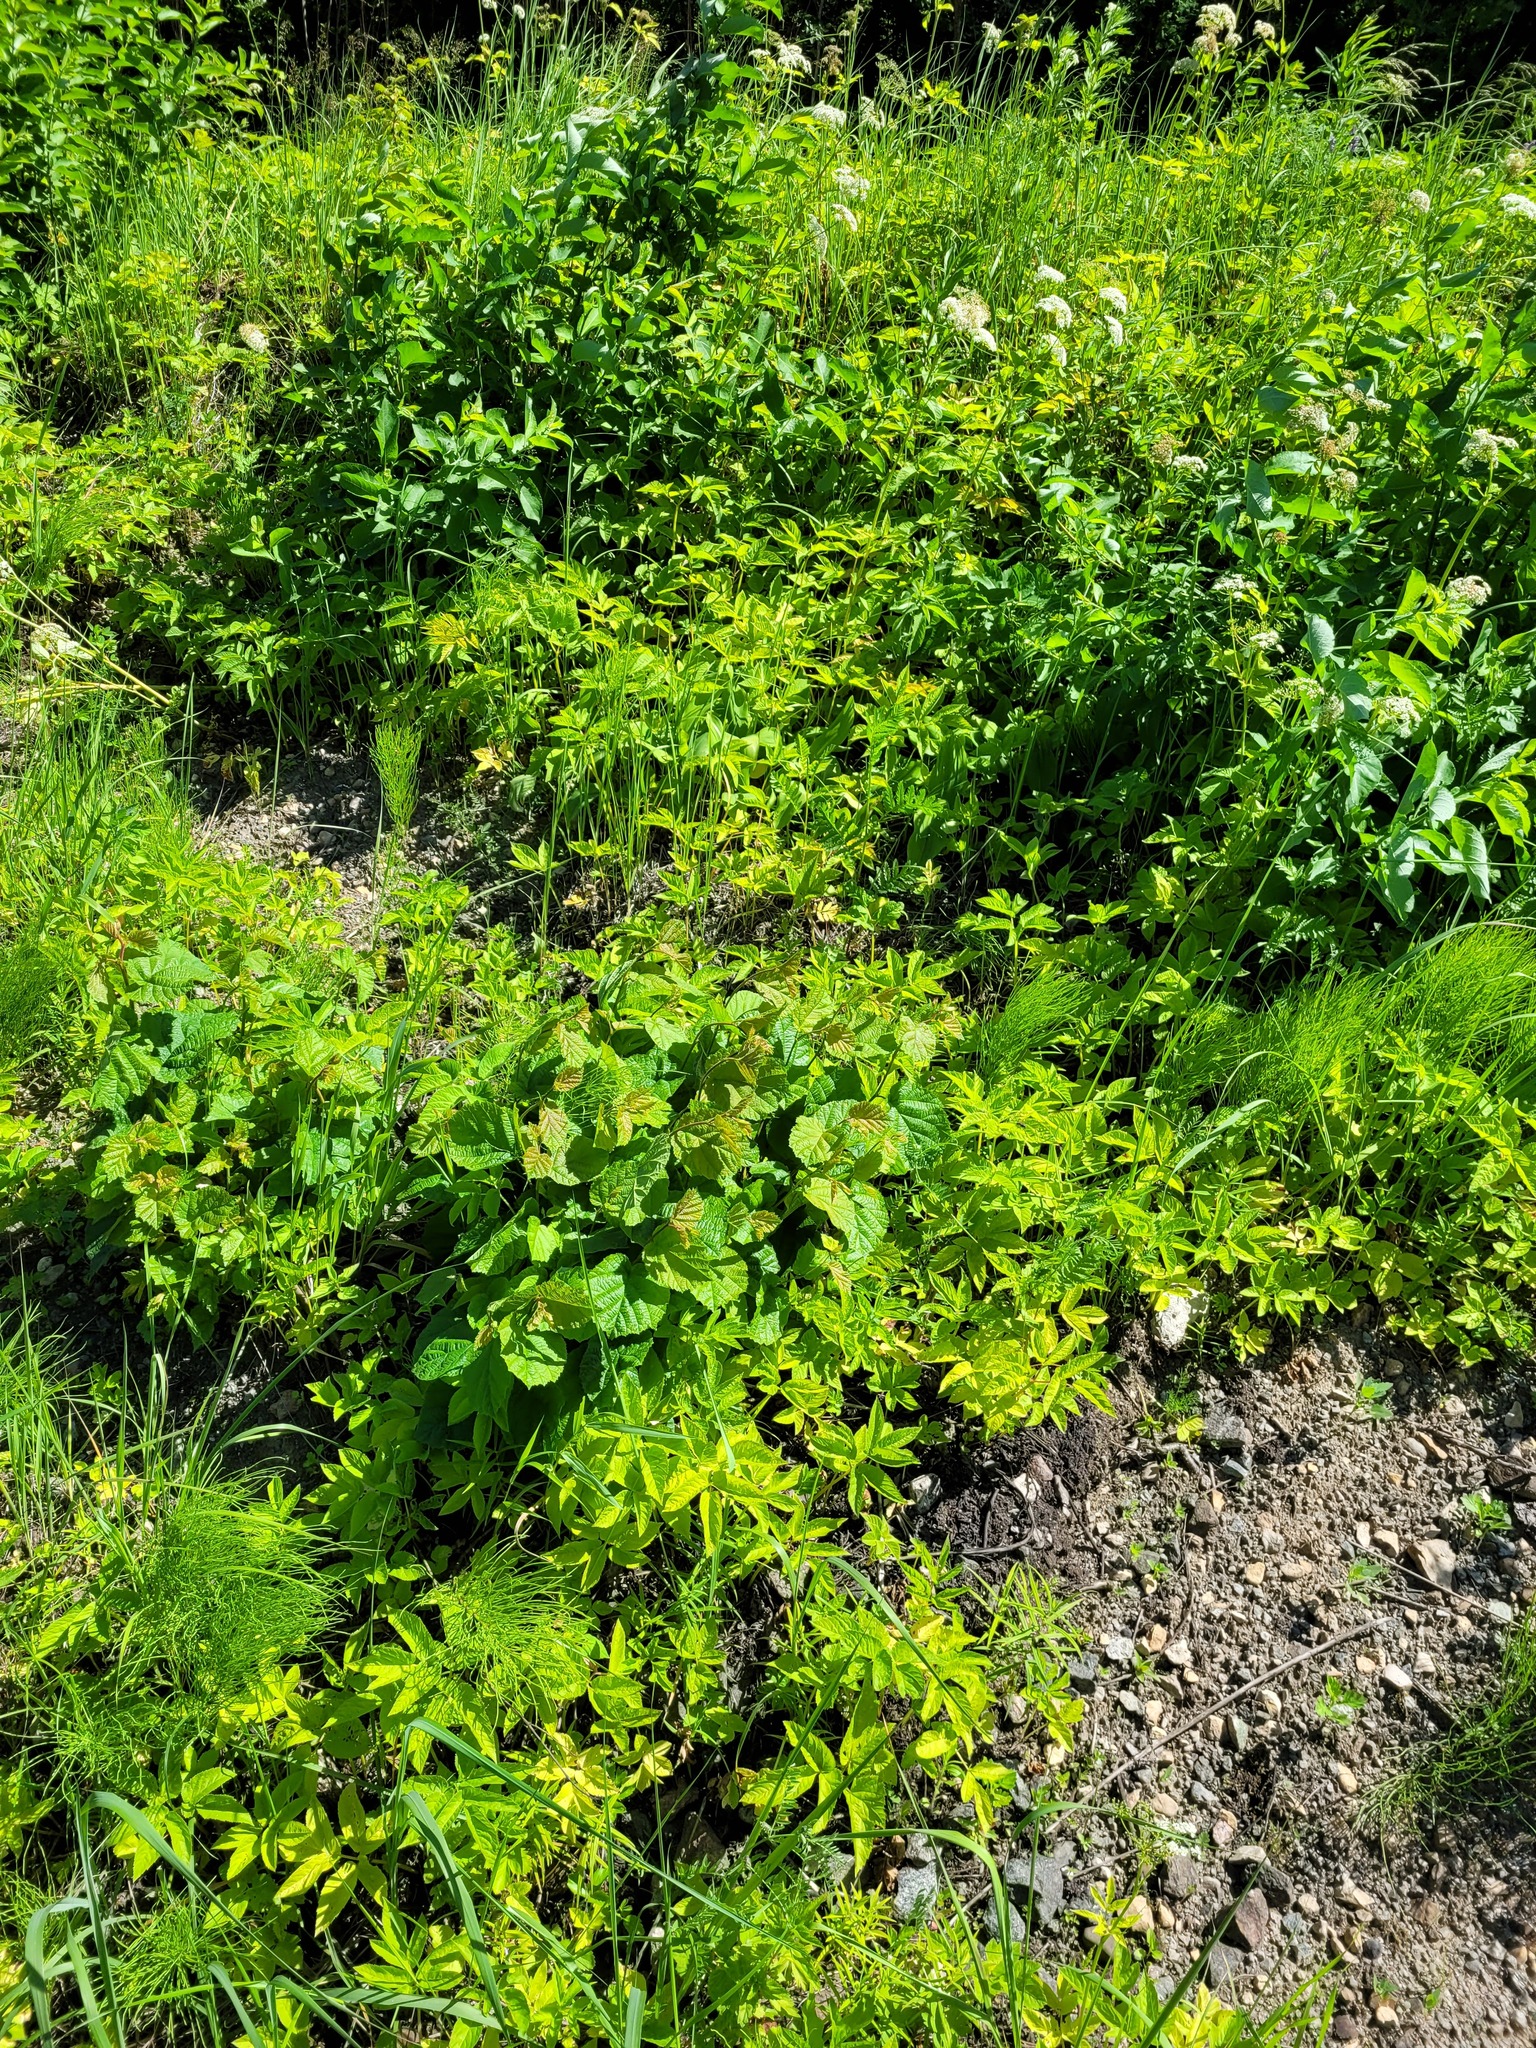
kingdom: Plantae
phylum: Tracheophyta
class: Magnoliopsida
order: Fagales
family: Betulaceae
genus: Corylus
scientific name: Corylus avellana
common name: European hazel
